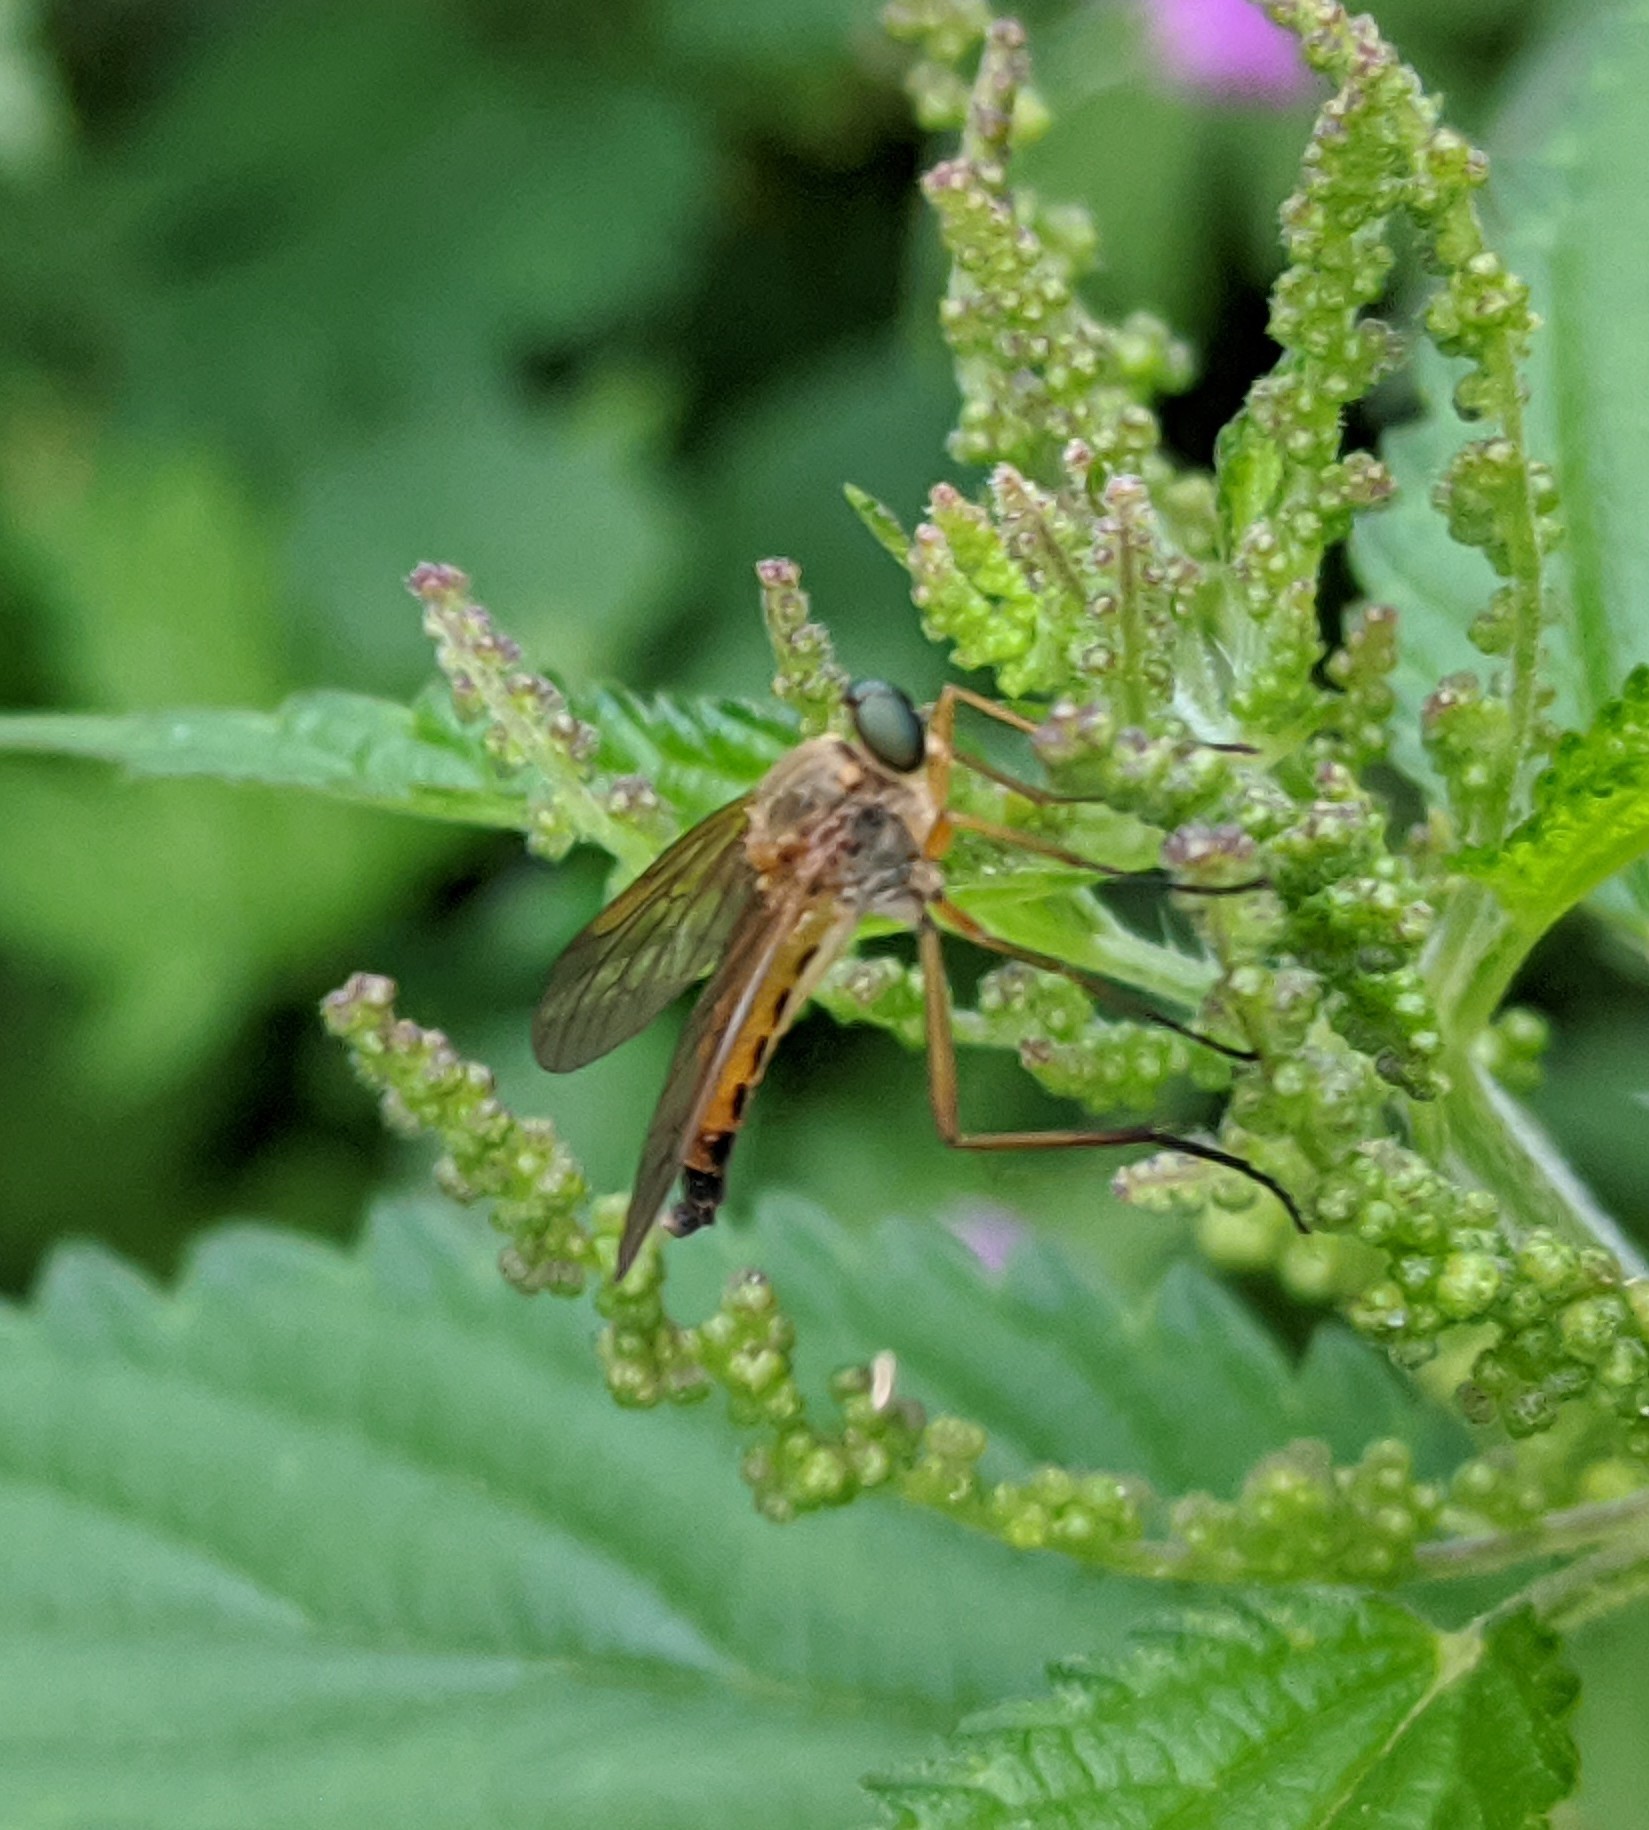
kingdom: Animalia
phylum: Arthropoda
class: Insecta
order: Diptera
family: Rhagionidae
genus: Rhagio
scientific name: Rhagio tringaria
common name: Marsh snipefly
